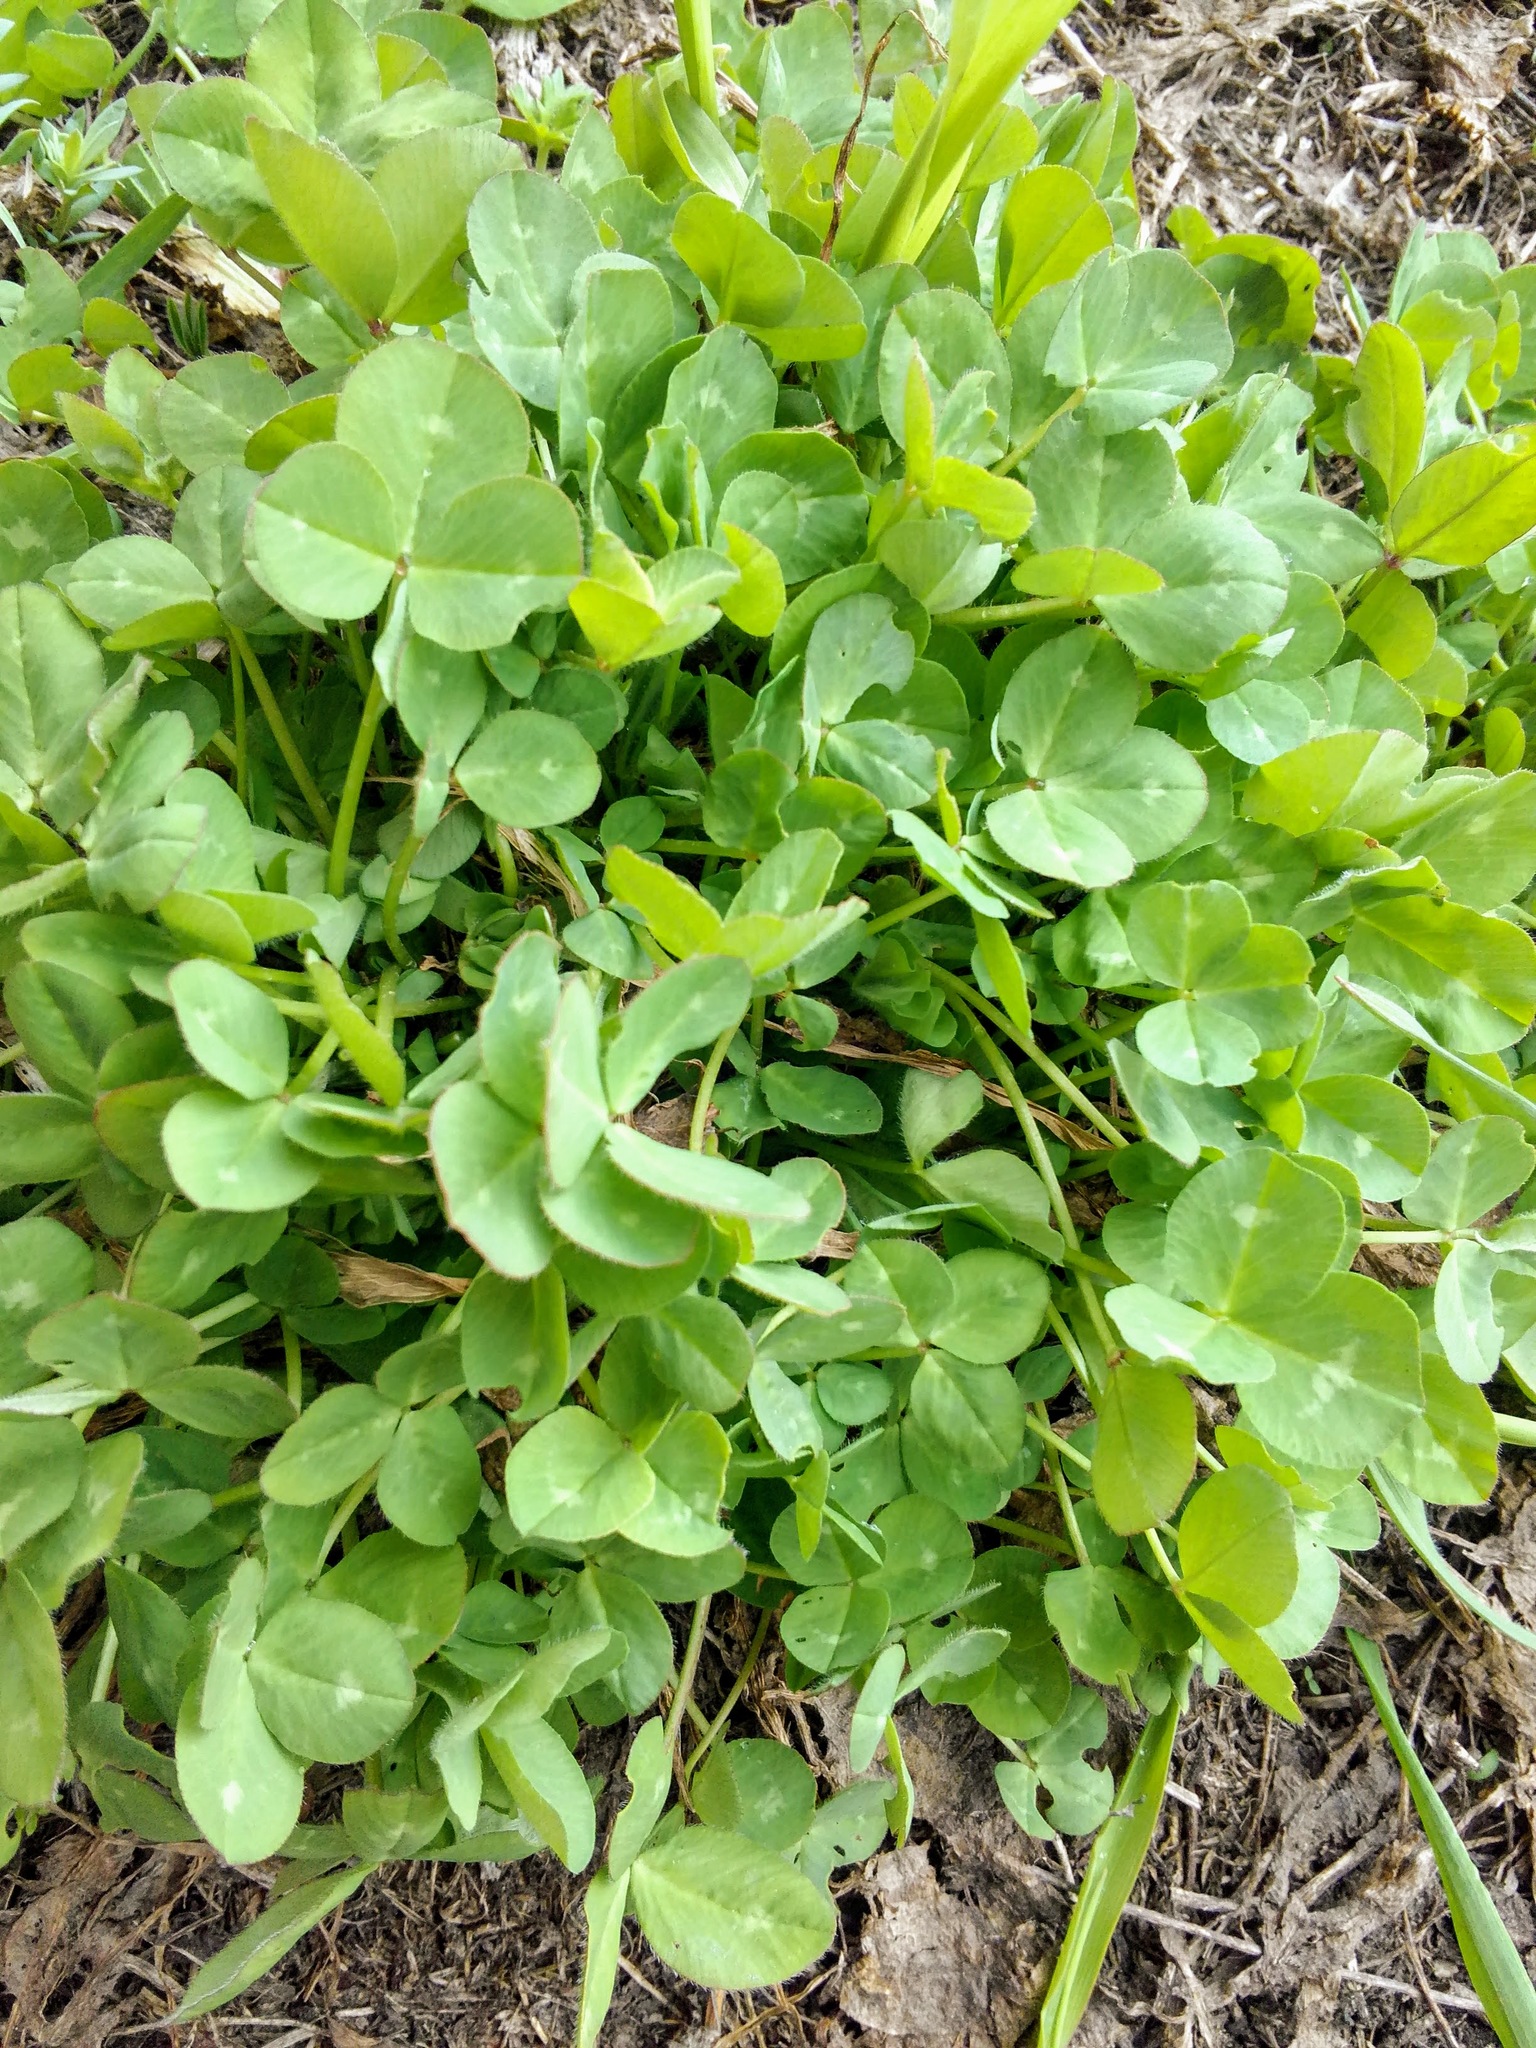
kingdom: Plantae
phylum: Tracheophyta
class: Magnoliopsida
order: Fabales
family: Fabaceae
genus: Trifolium
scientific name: Trifolium repens
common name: White clover
